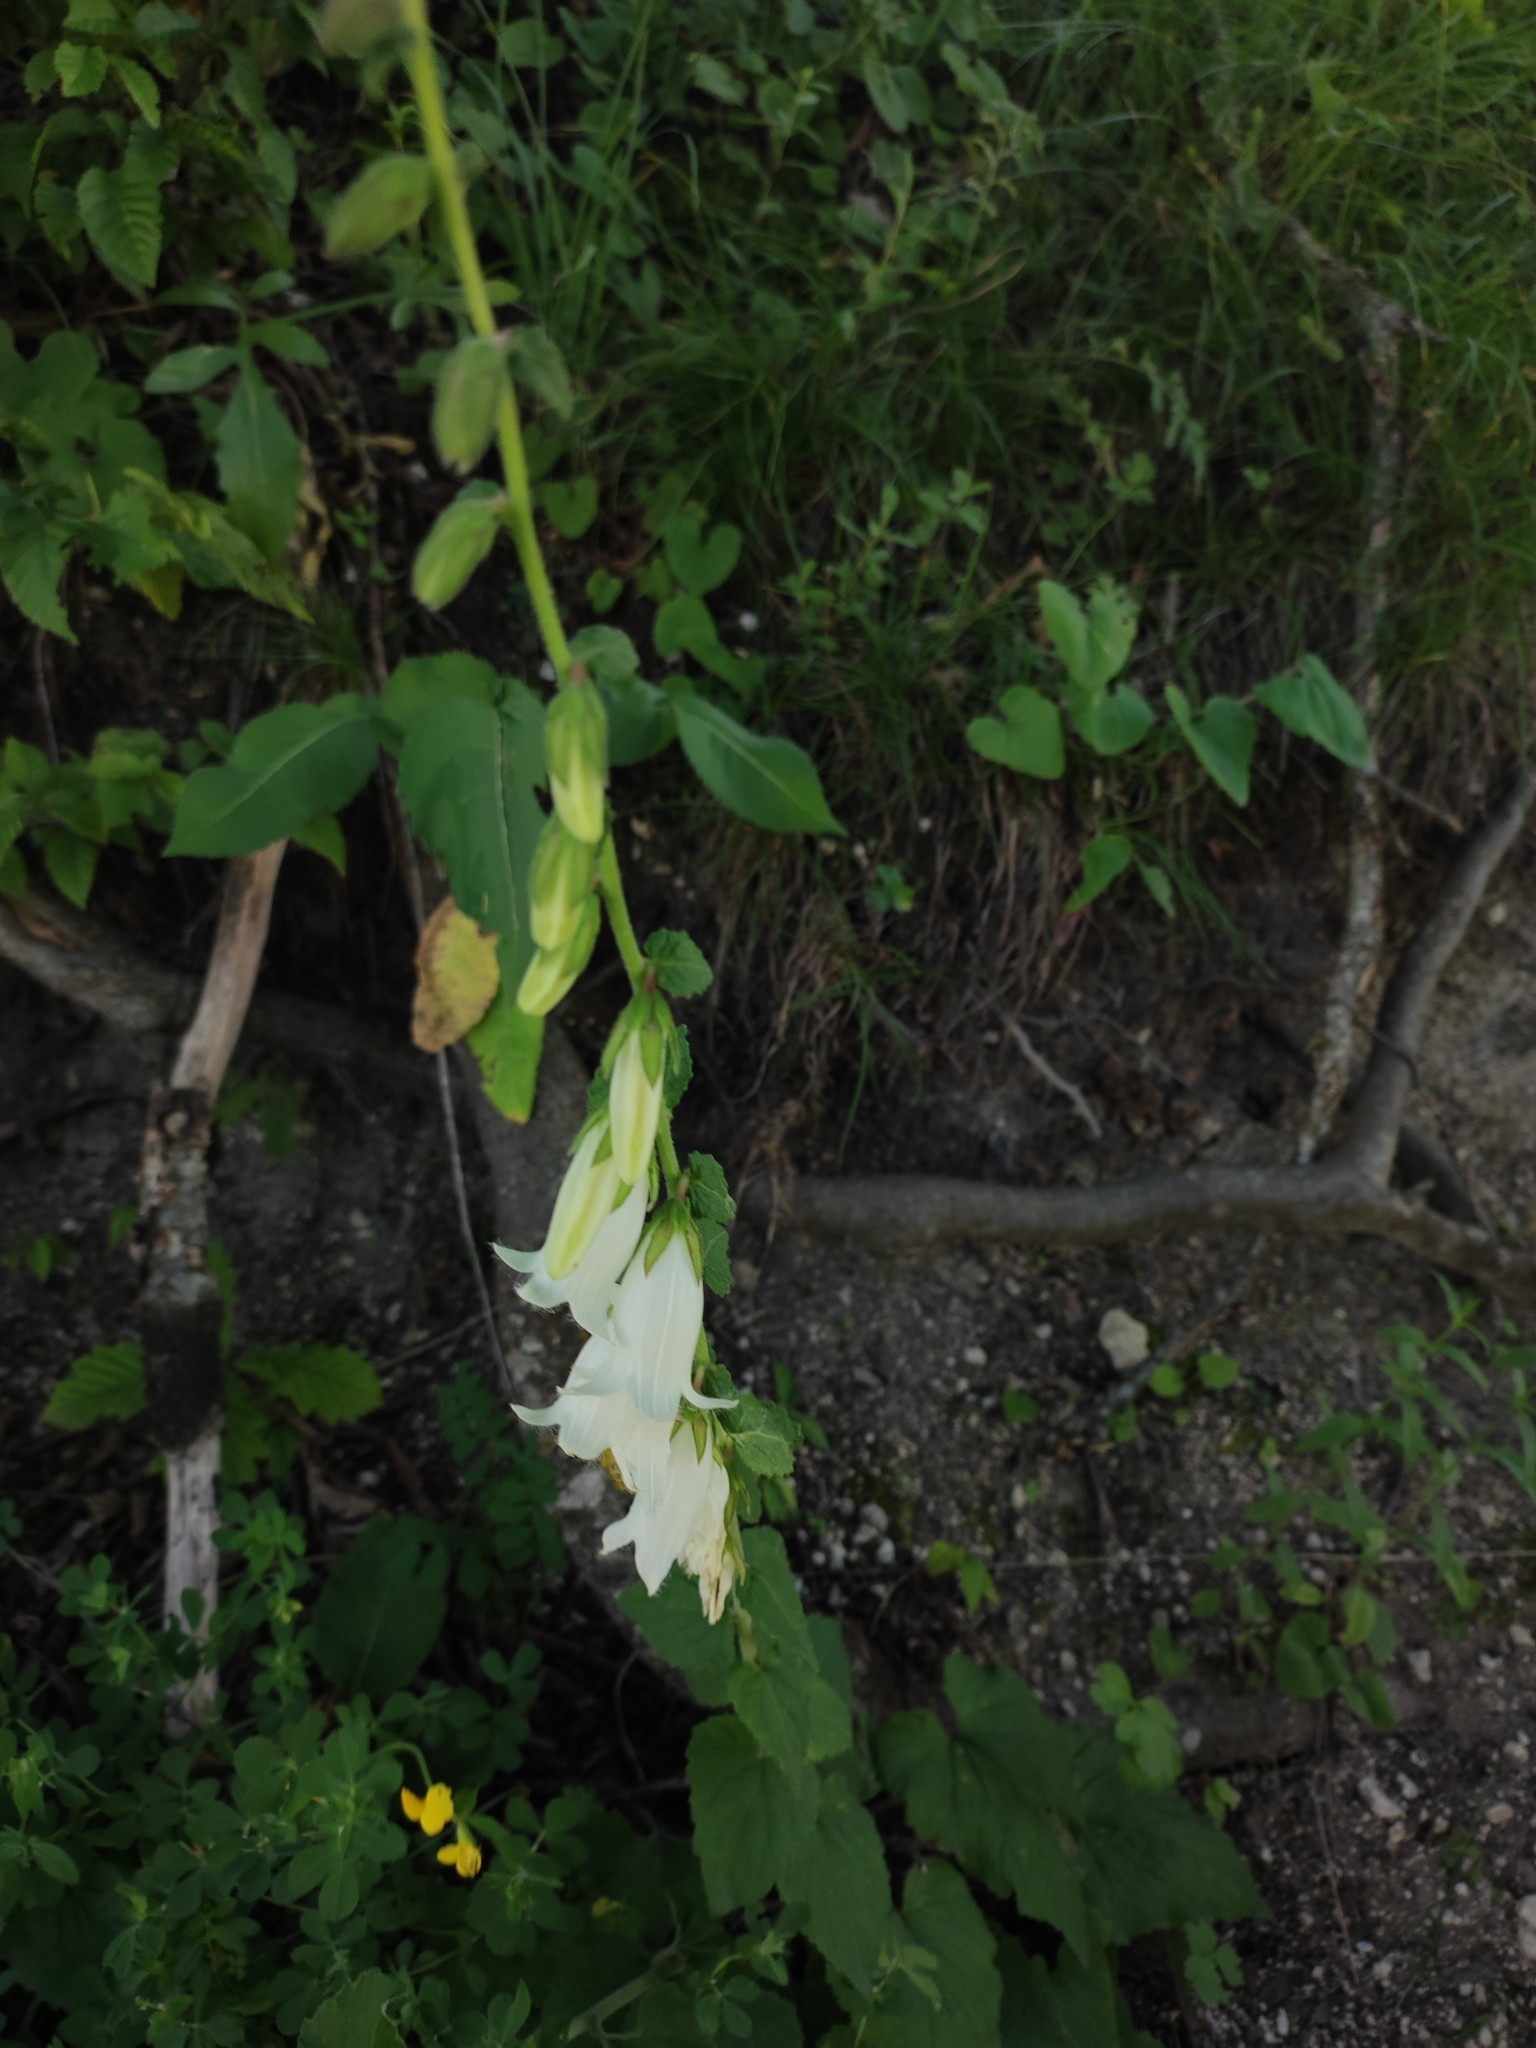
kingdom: Plantae
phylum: Tracheophyta
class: Magnoliopsida
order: Asterales
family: Campanulaceae
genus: Campanula
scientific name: Campanula alliariifolia
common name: Cornish bellflower
